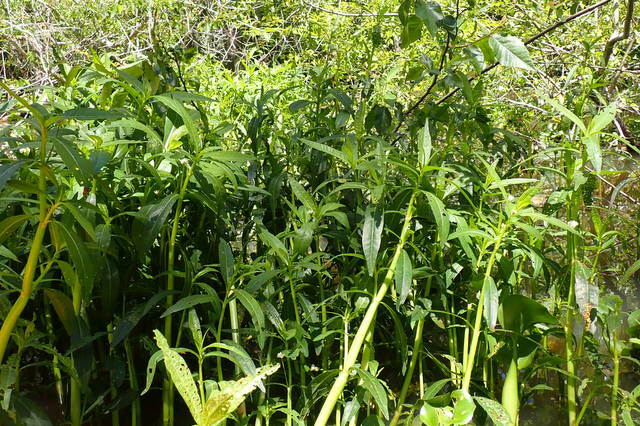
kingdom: Plantae
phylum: Tracheophyta
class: Magnoliopsida
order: Caryophyllales
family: Amaranthaceae
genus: Alternanthera
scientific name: Alternanthera philoxeroides
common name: Alligatorweed
